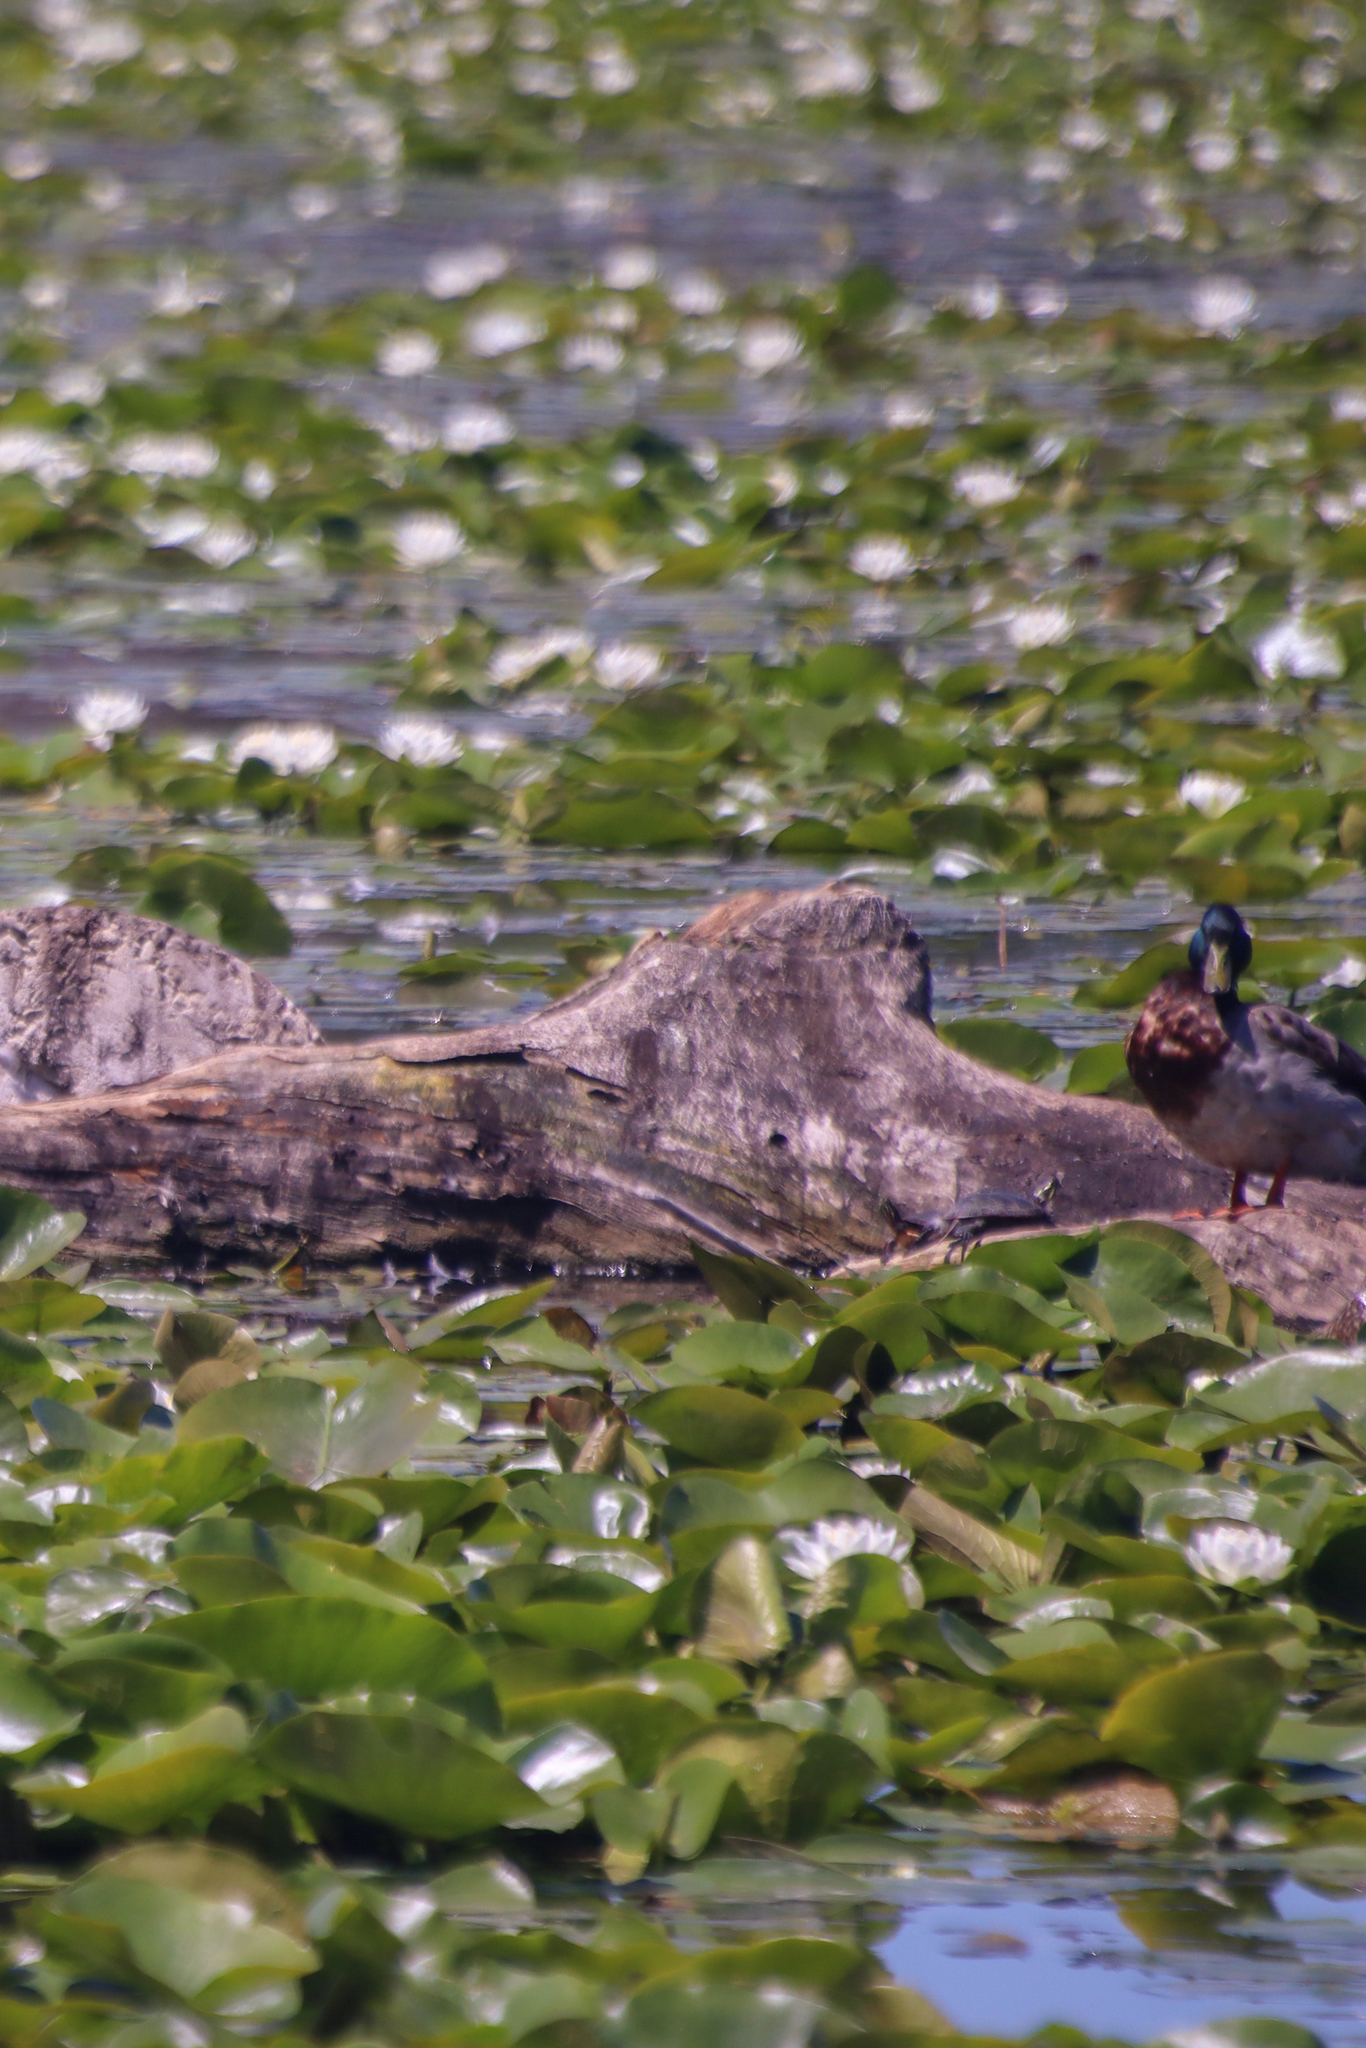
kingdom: Animalia
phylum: Chordata
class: Aves
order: Anseriformes
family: Anatidae
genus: Anas
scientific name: Anas platyrhynchos
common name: Mallard
